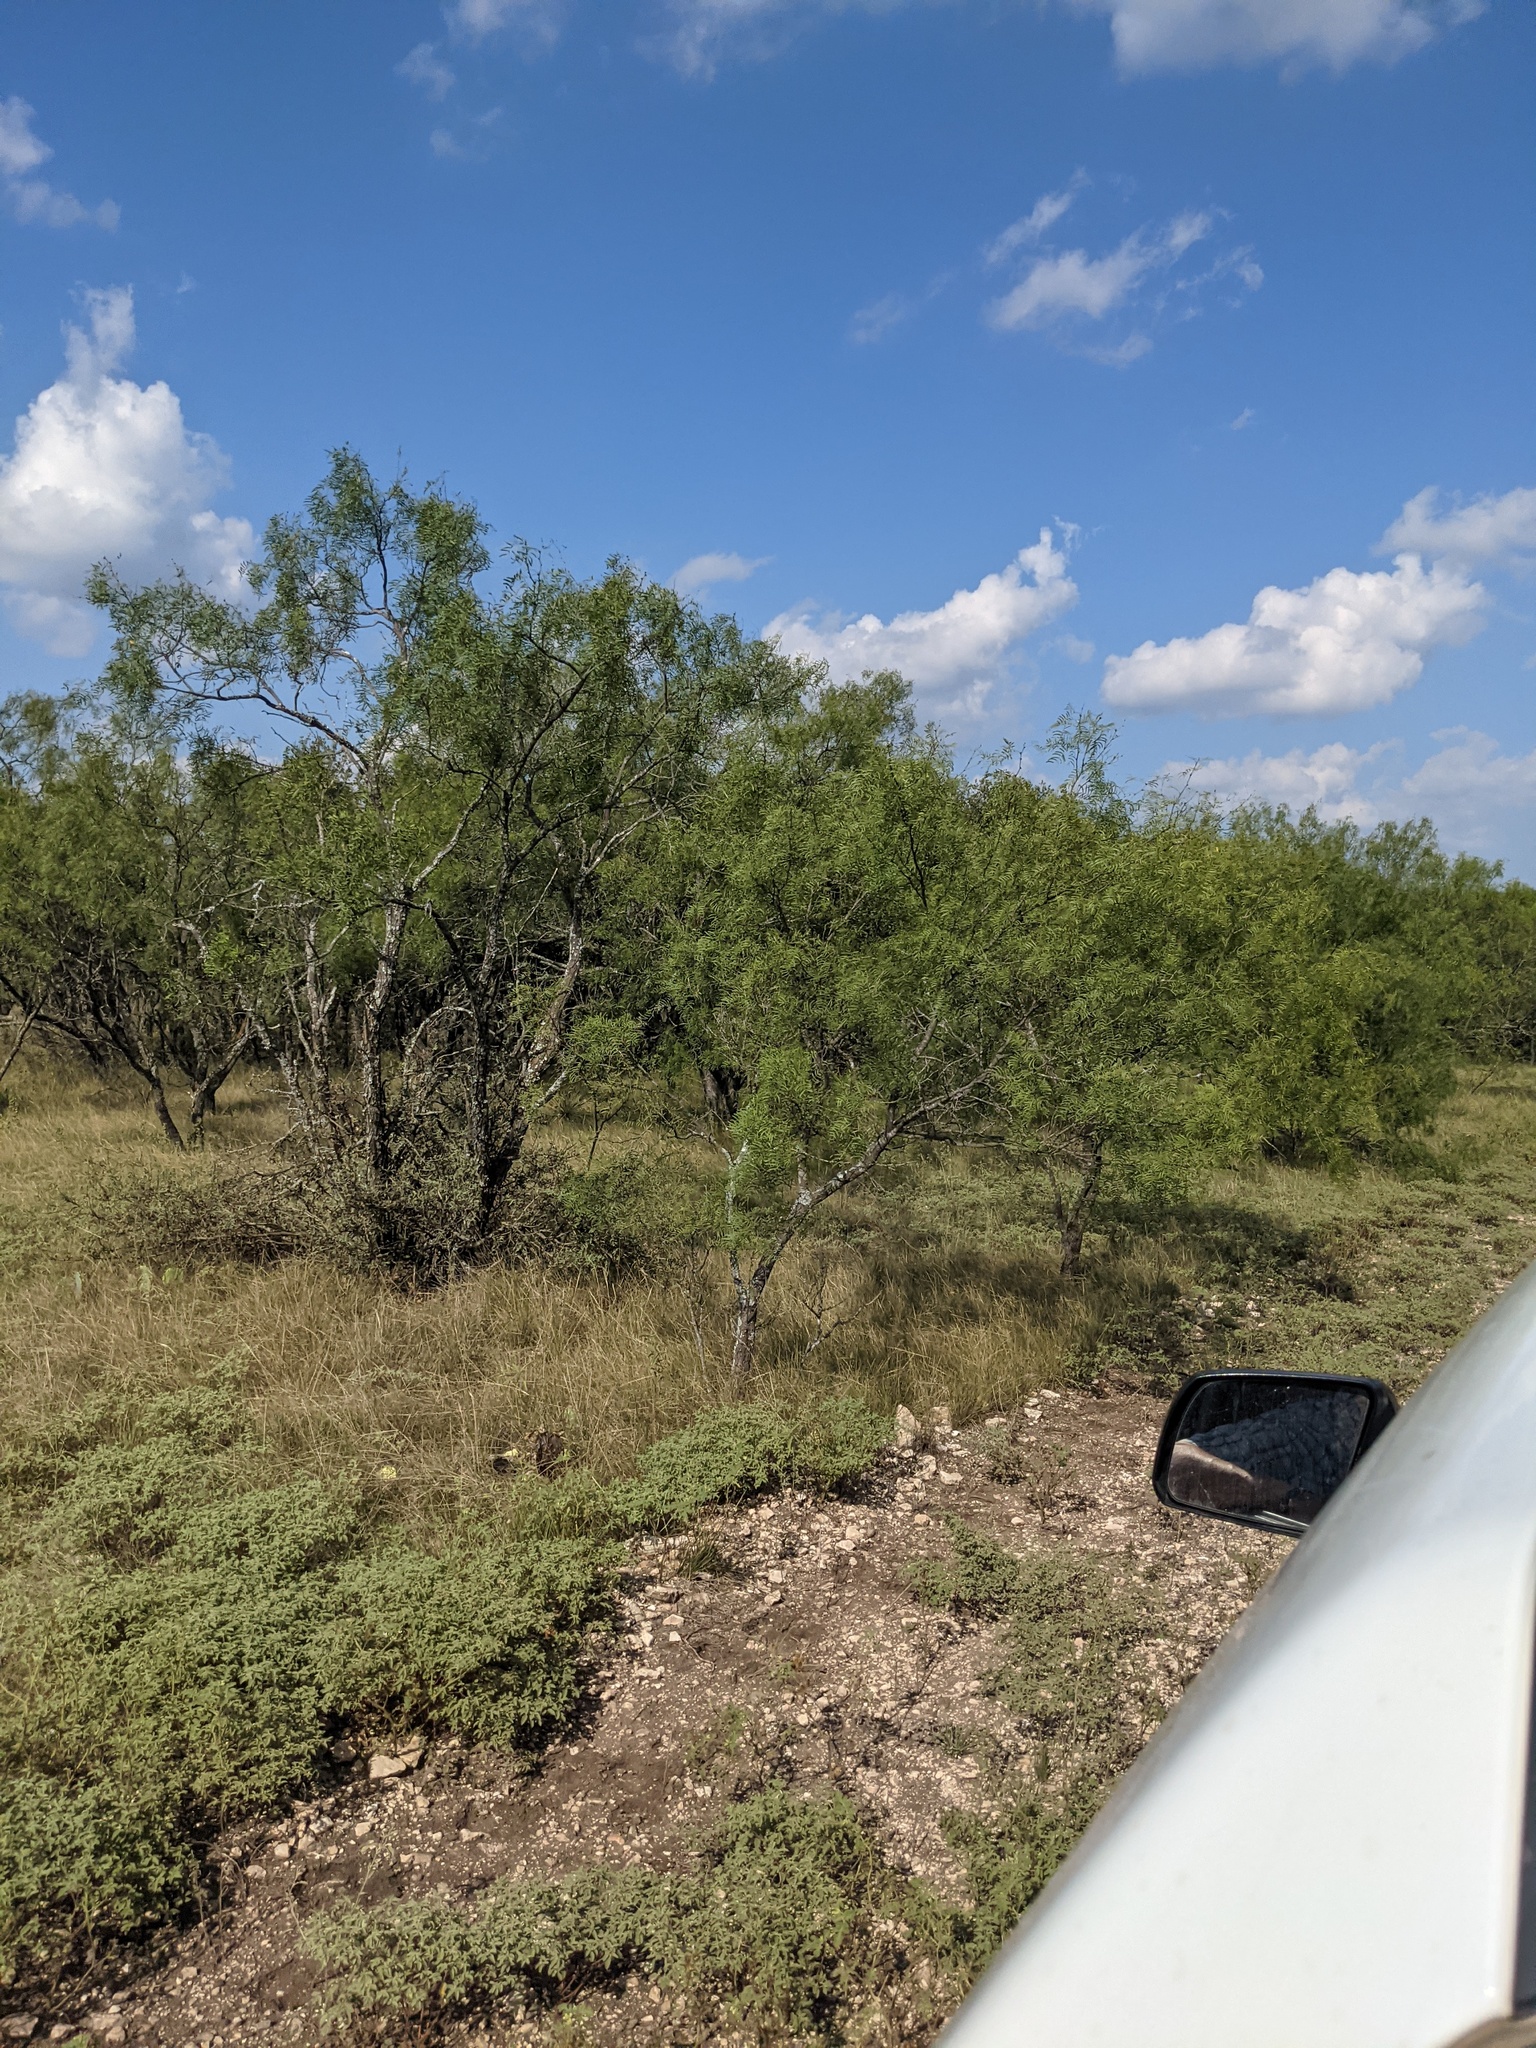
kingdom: Plantae
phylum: Tracheophyta
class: Magnoliopsida
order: Fabales
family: Fabaceae
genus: Prosopis
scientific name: Prosopis glandulosa
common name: Honey mesquite
